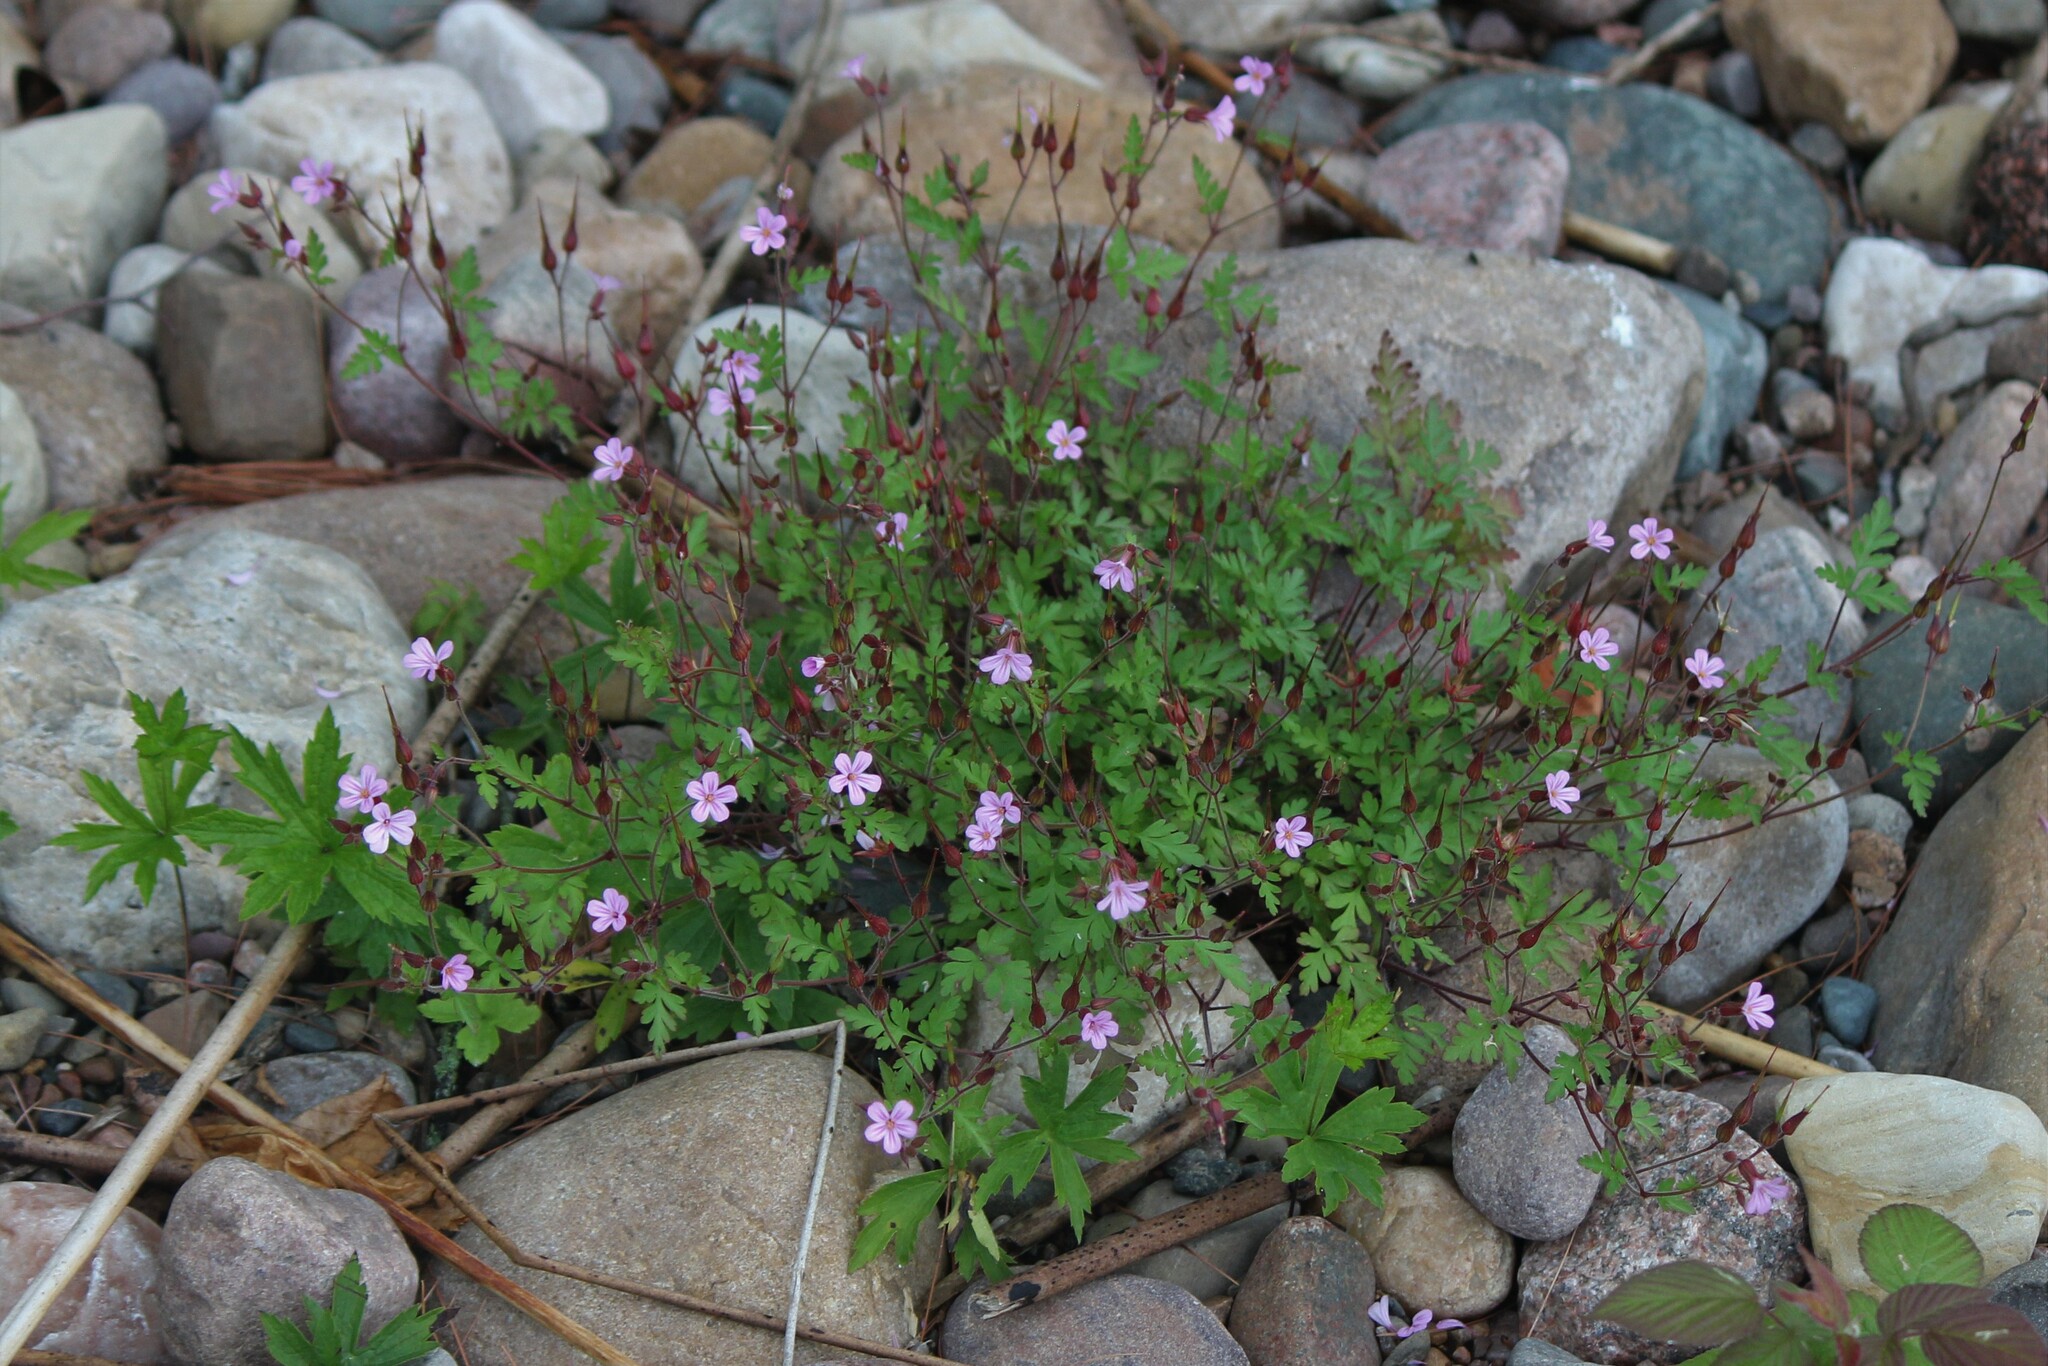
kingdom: Plantae
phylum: Tracheophyta
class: Magnoliopsida
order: Geraniales
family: Geraniaceae
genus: Geranium
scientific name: Geranium robertianum
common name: Herb-robert
